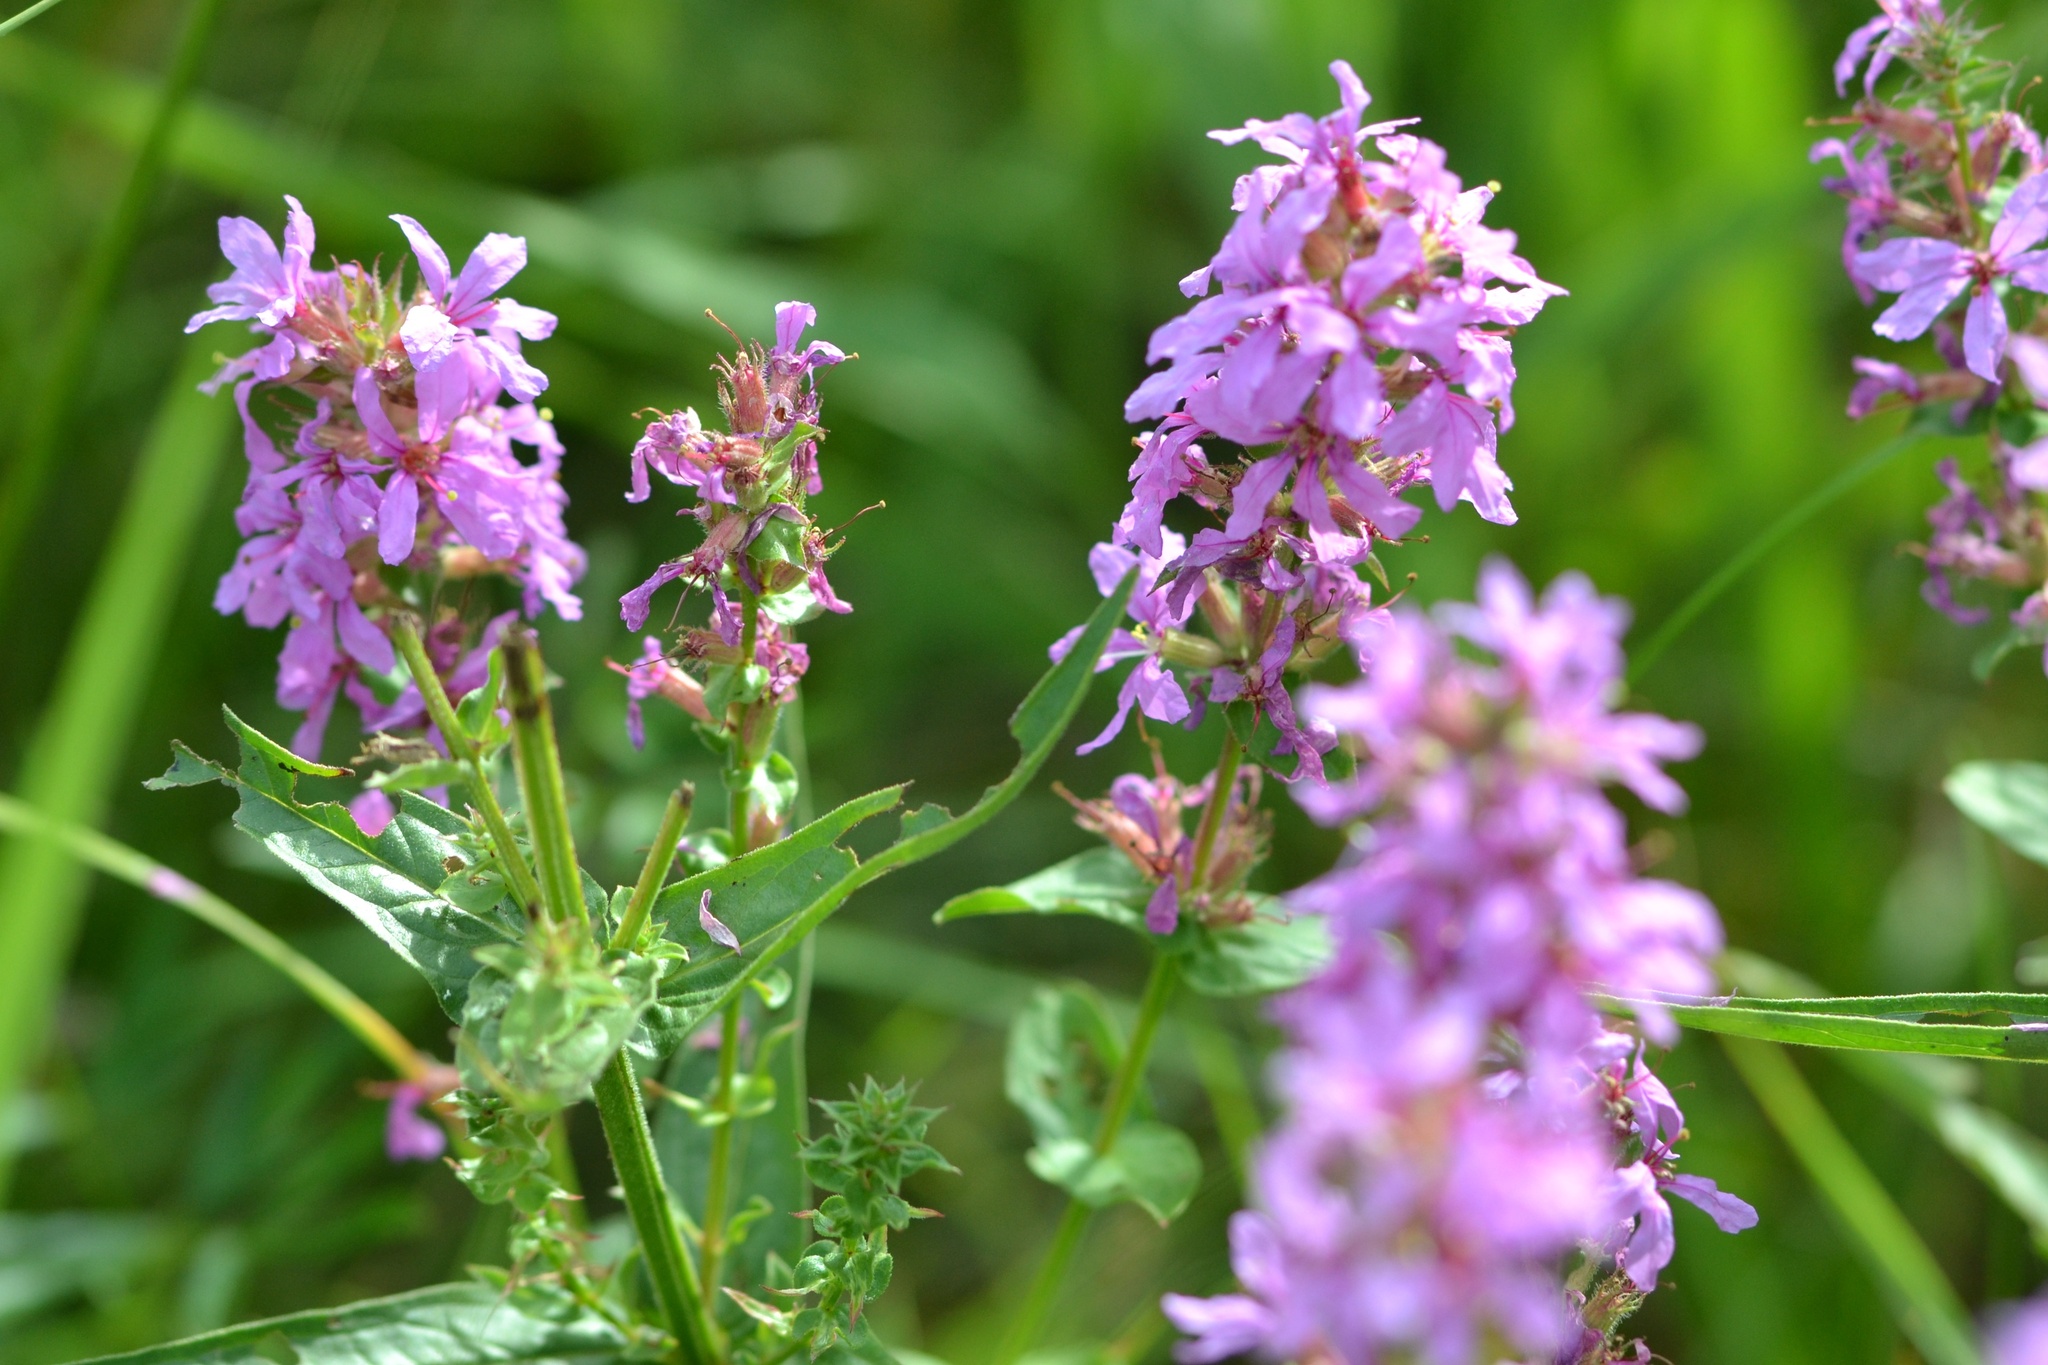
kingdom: Plantae
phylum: Tracheophyta
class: Magnoliopsida
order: Myrtales
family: Lythraceae
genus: Lythrum
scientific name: Lythrum salicaria
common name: Purple loosestrife
